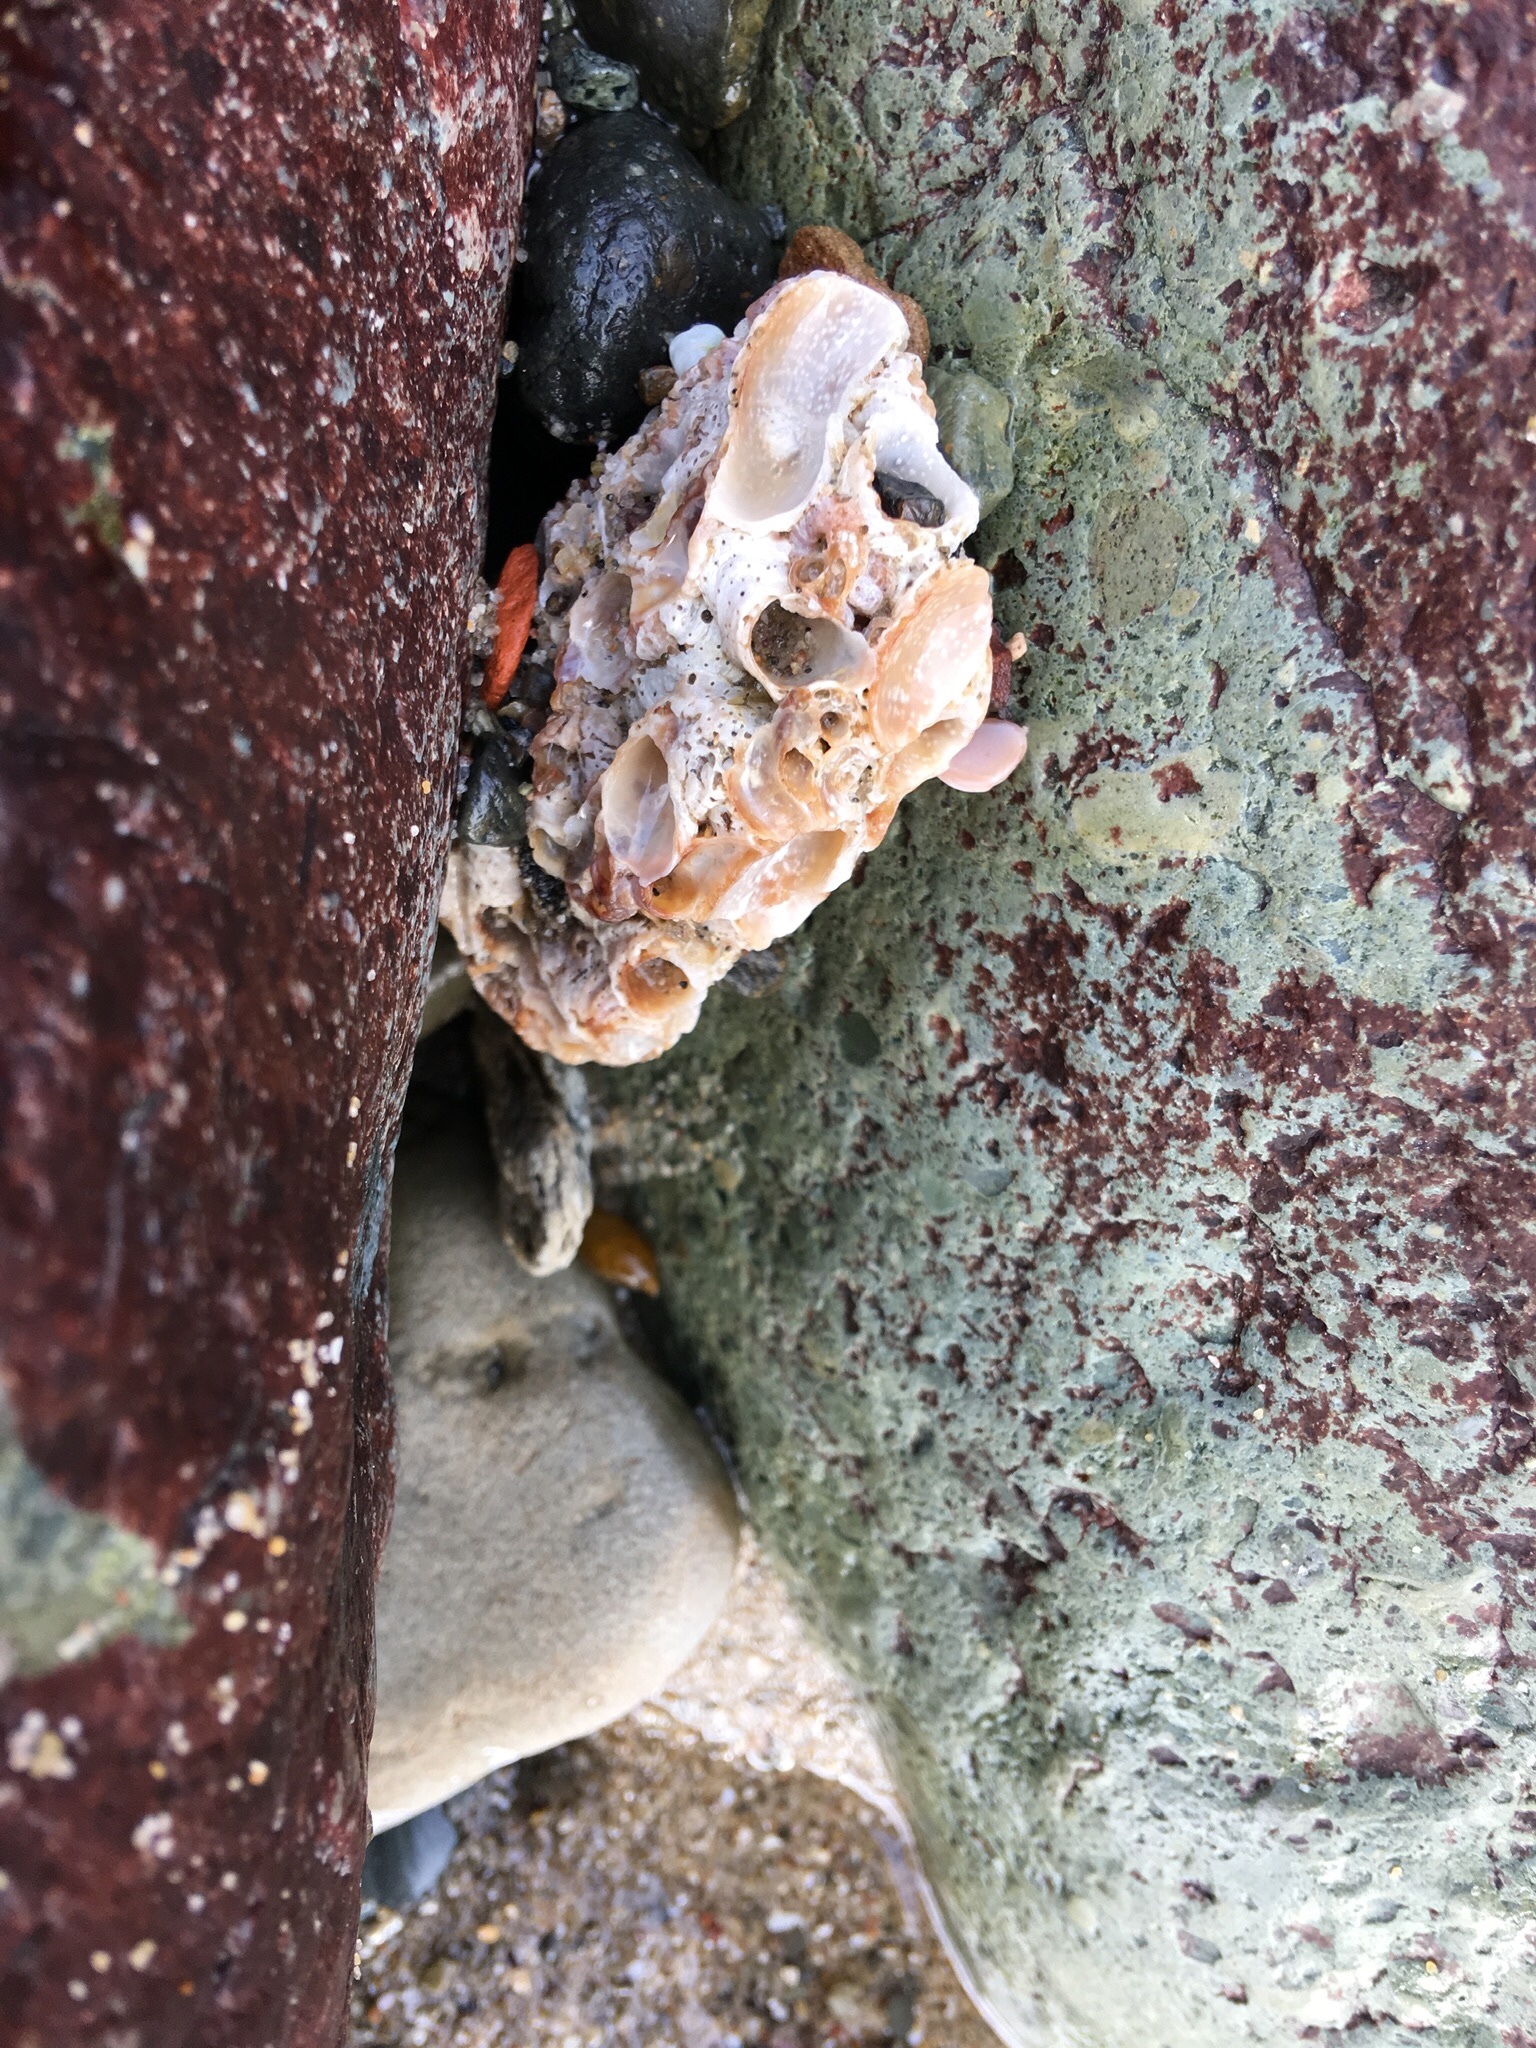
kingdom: Animalia
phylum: Mollusca
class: Gastropoda
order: Littorinimorpha
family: Vermetidae
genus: Thylacodes
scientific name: Thylacodes squamigerus
